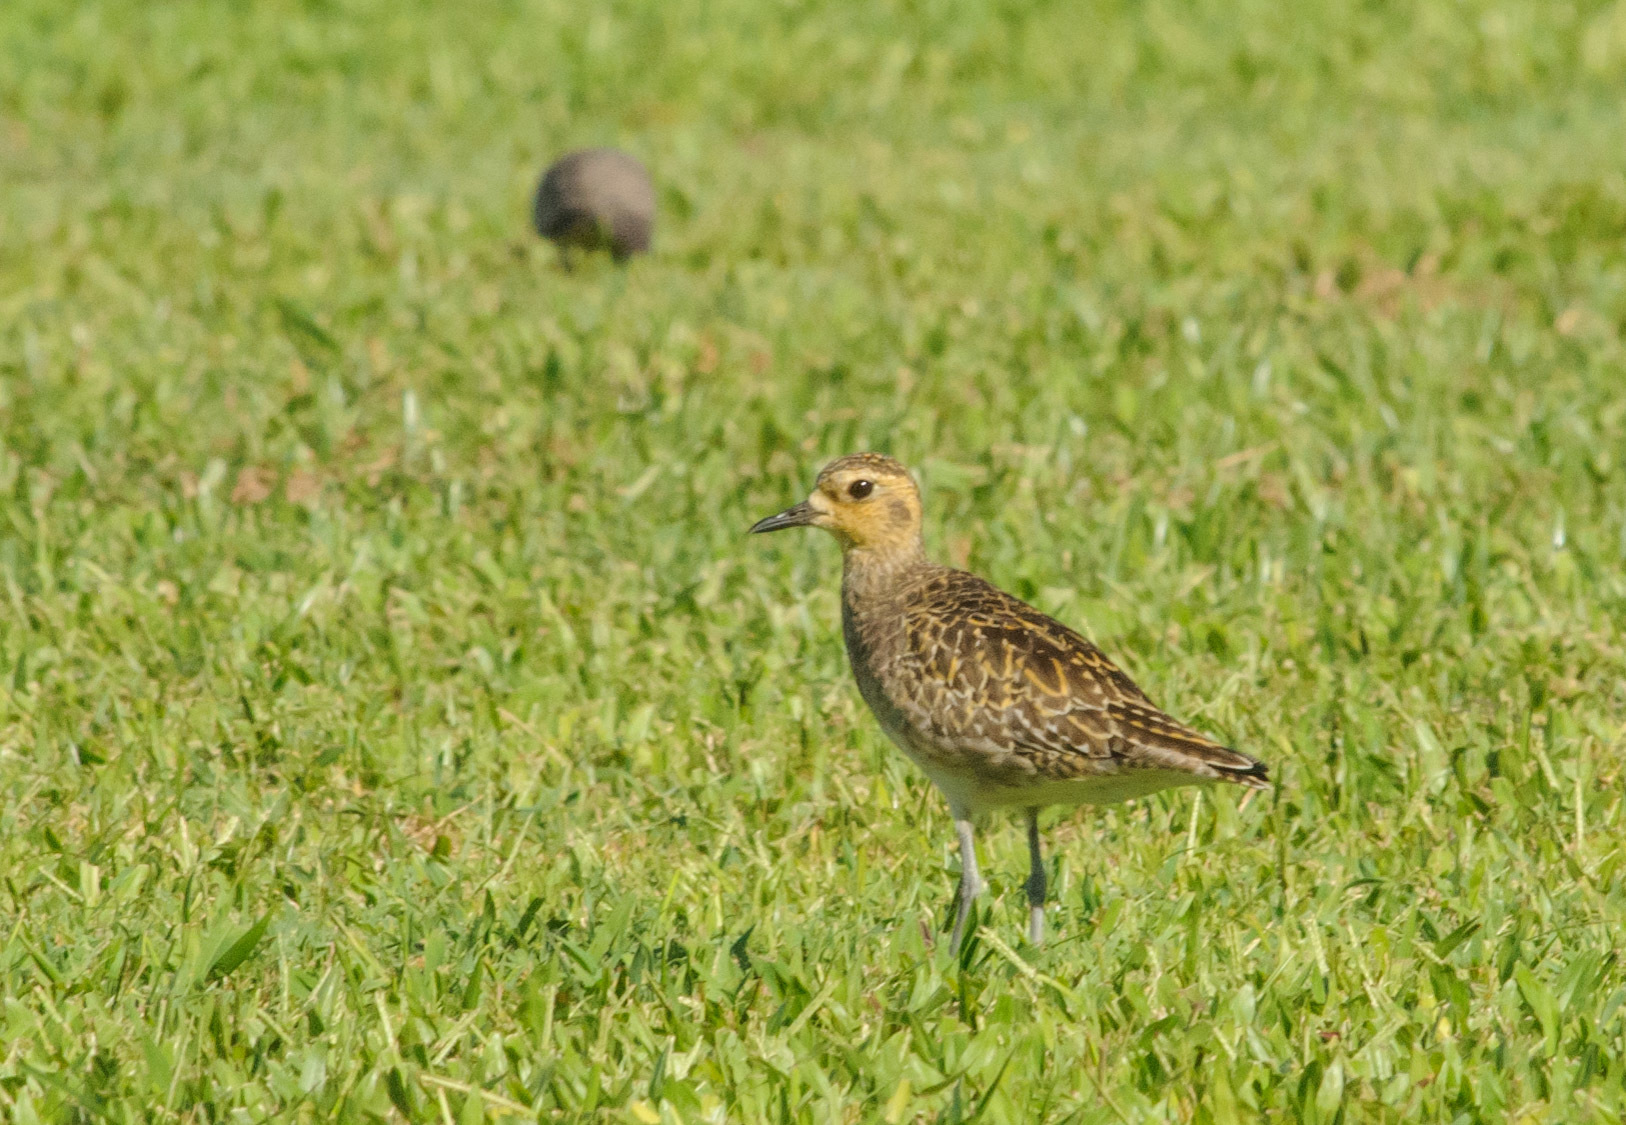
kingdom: Animalia
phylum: Chordata
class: Aves
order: Charadriiformes
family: Charadriidae
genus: Pluvialis
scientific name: Pluvialis fulva
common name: Pacific golden plover
